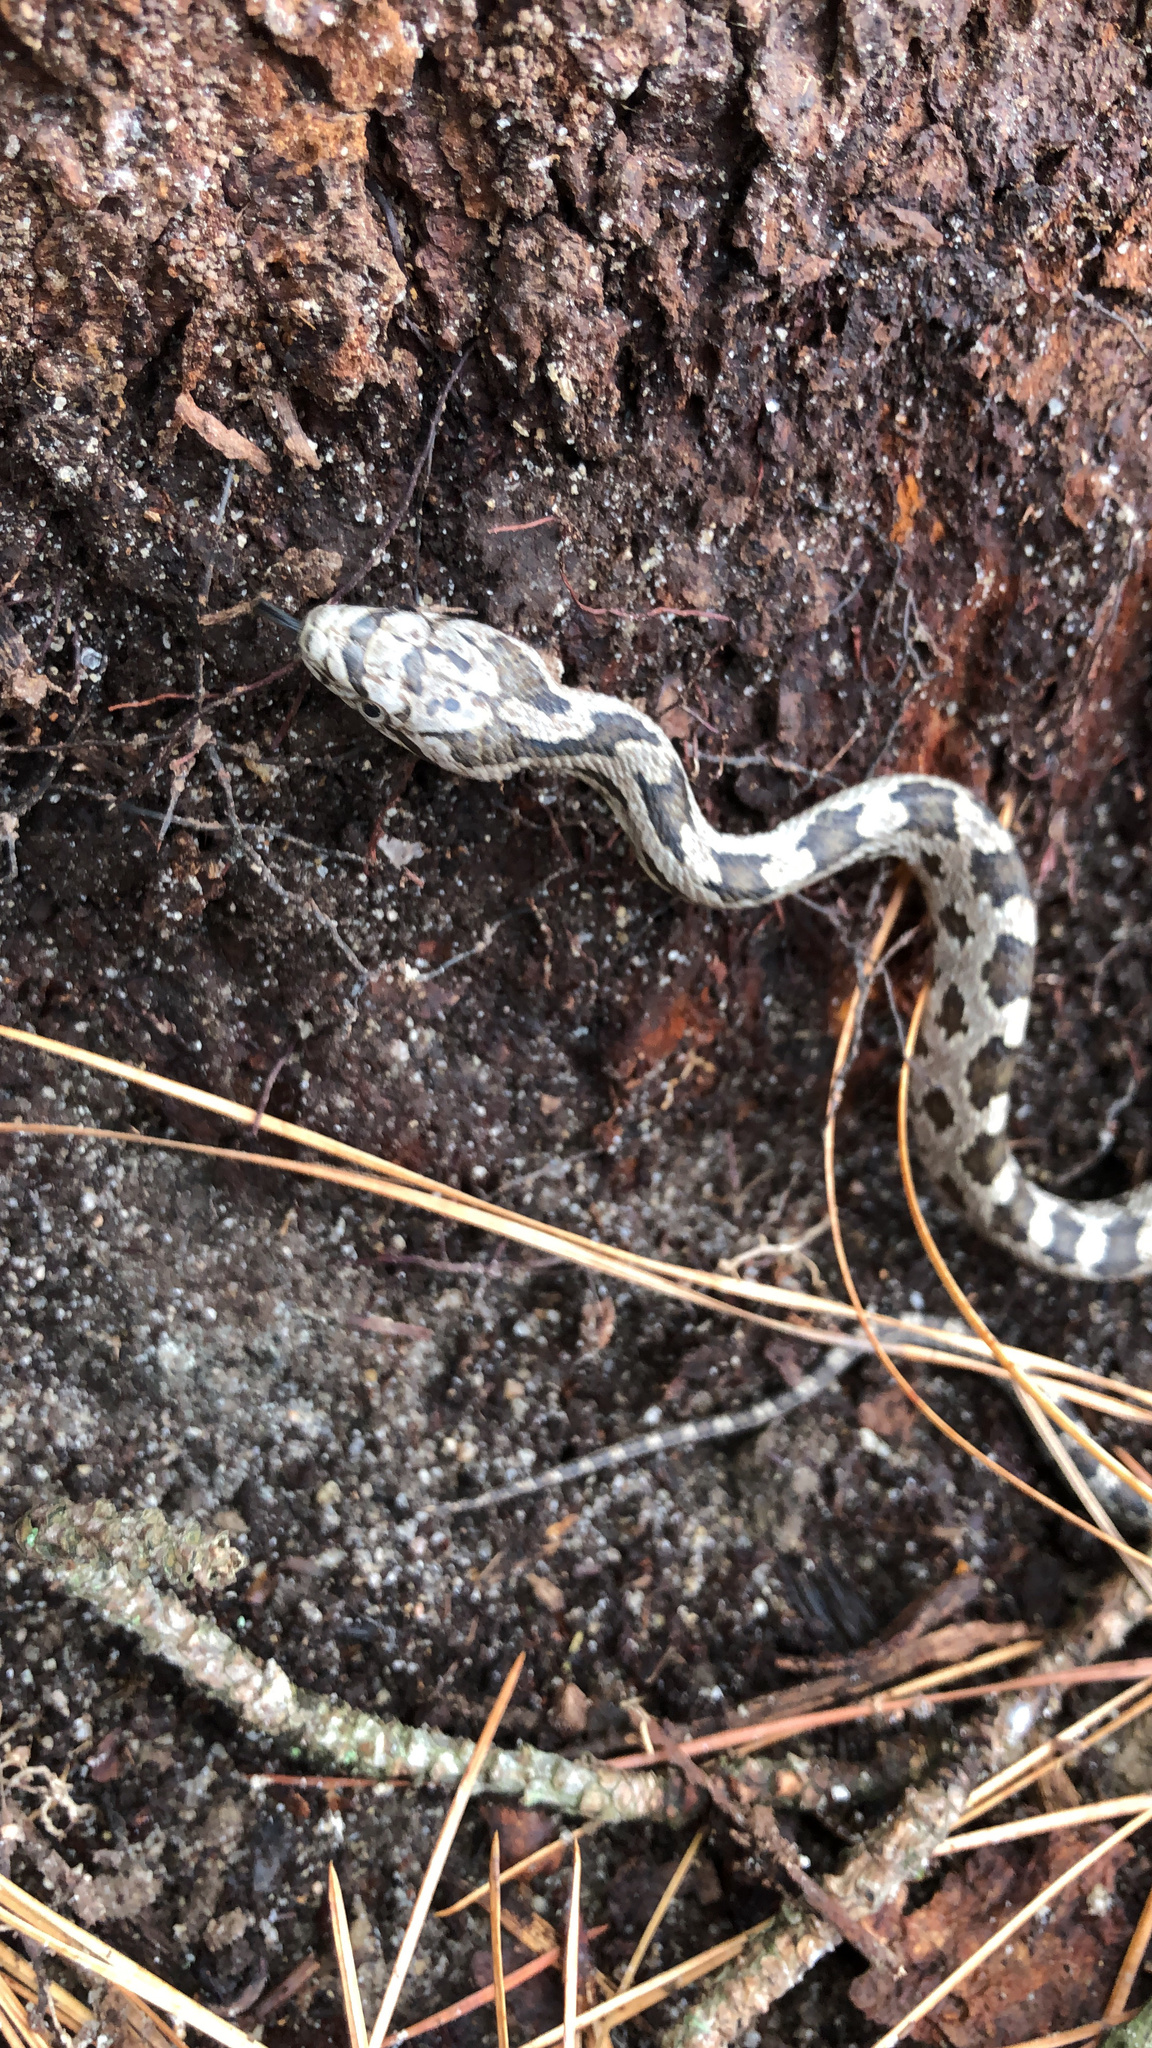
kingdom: Animalia
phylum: Chordata
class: Squamata
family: Colubridae
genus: Pantherophis
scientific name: Pantherophis alleghaniensis
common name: Eastern rat snake
